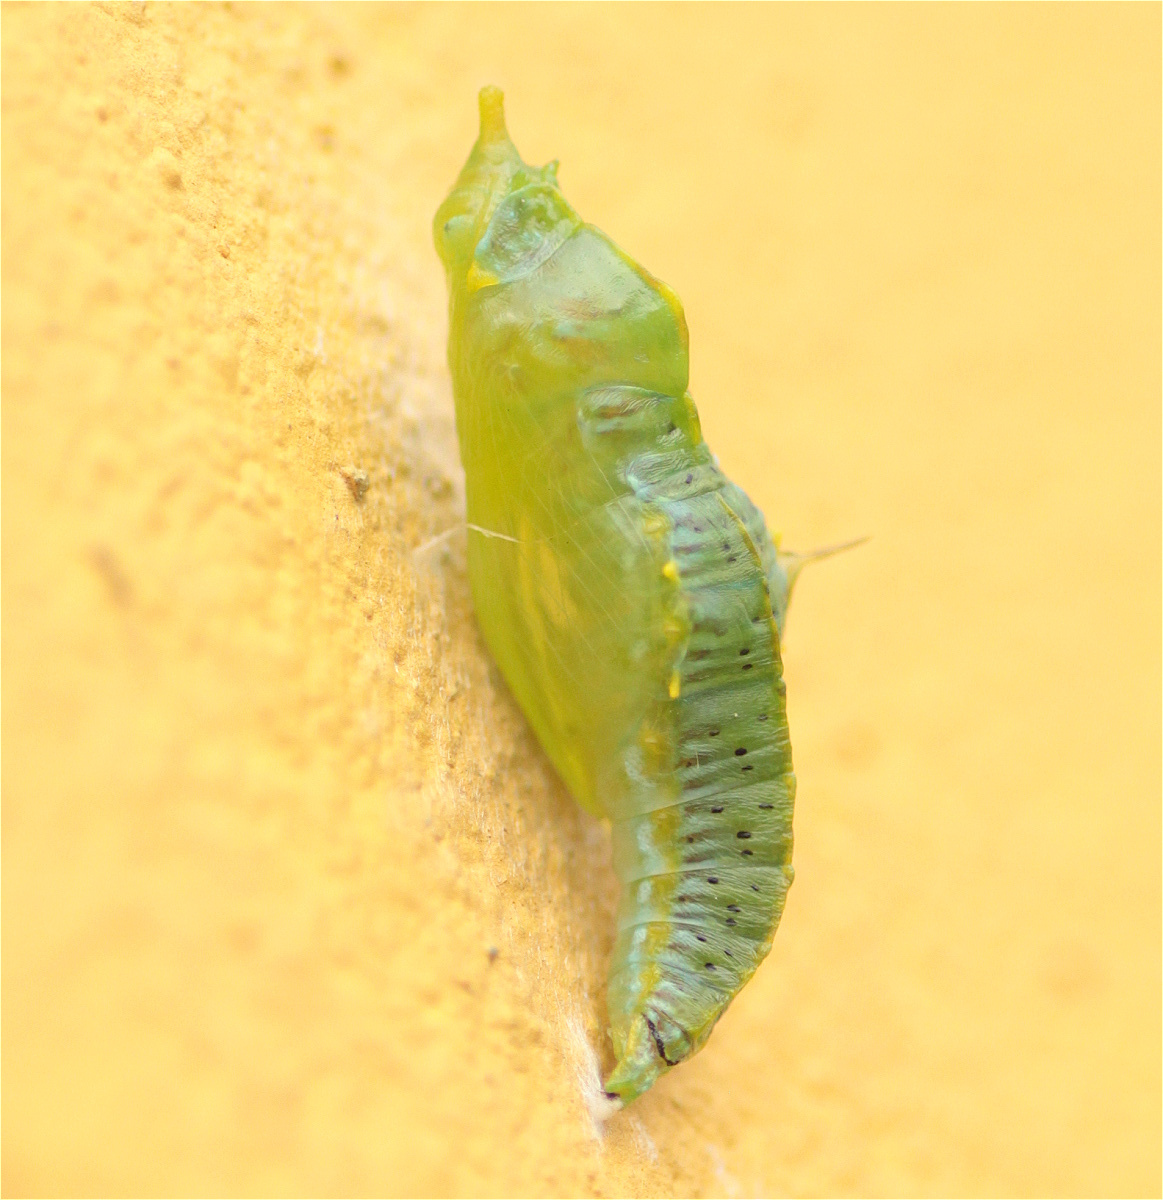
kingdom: Animalia
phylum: Arthropoda
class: Insecta
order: Lepidoptera
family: Pieridae
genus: Leptophobia
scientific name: Leptophobia aripa
